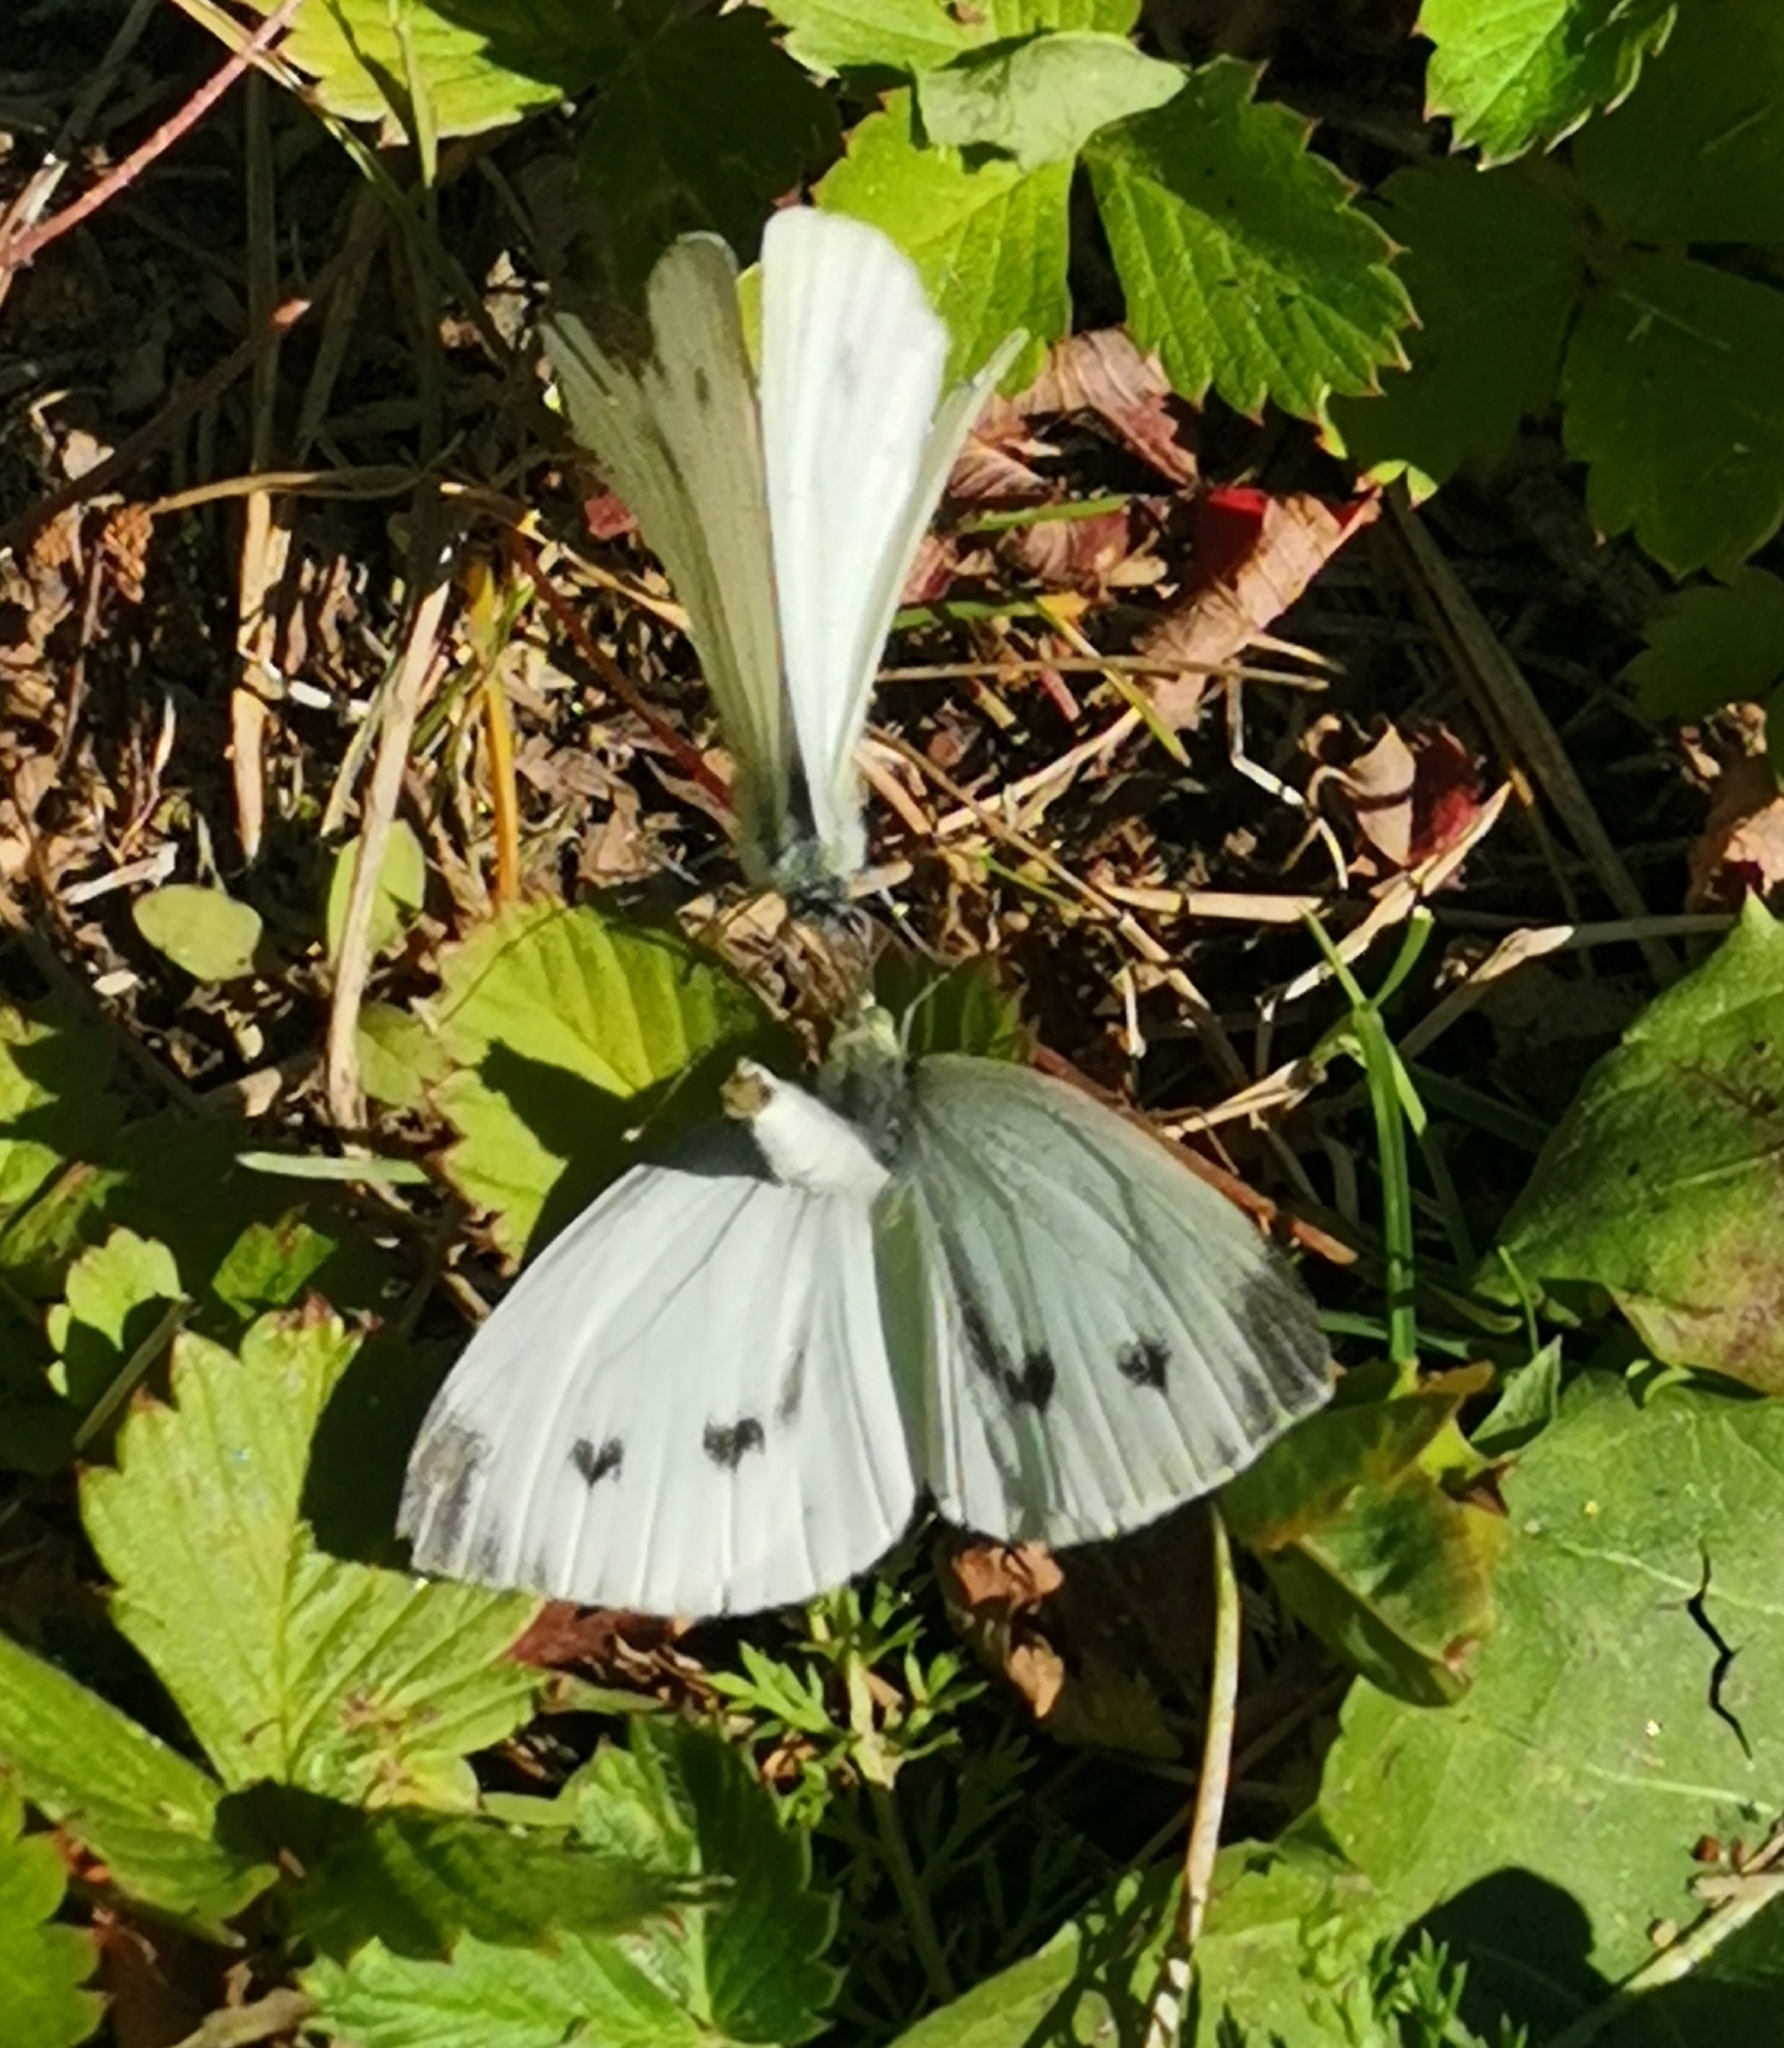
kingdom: Animalia
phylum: Arthropoda
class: Insecta
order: Lepidoptera
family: Pieridae
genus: Pieris
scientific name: Pieris napi
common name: Green-veined white
